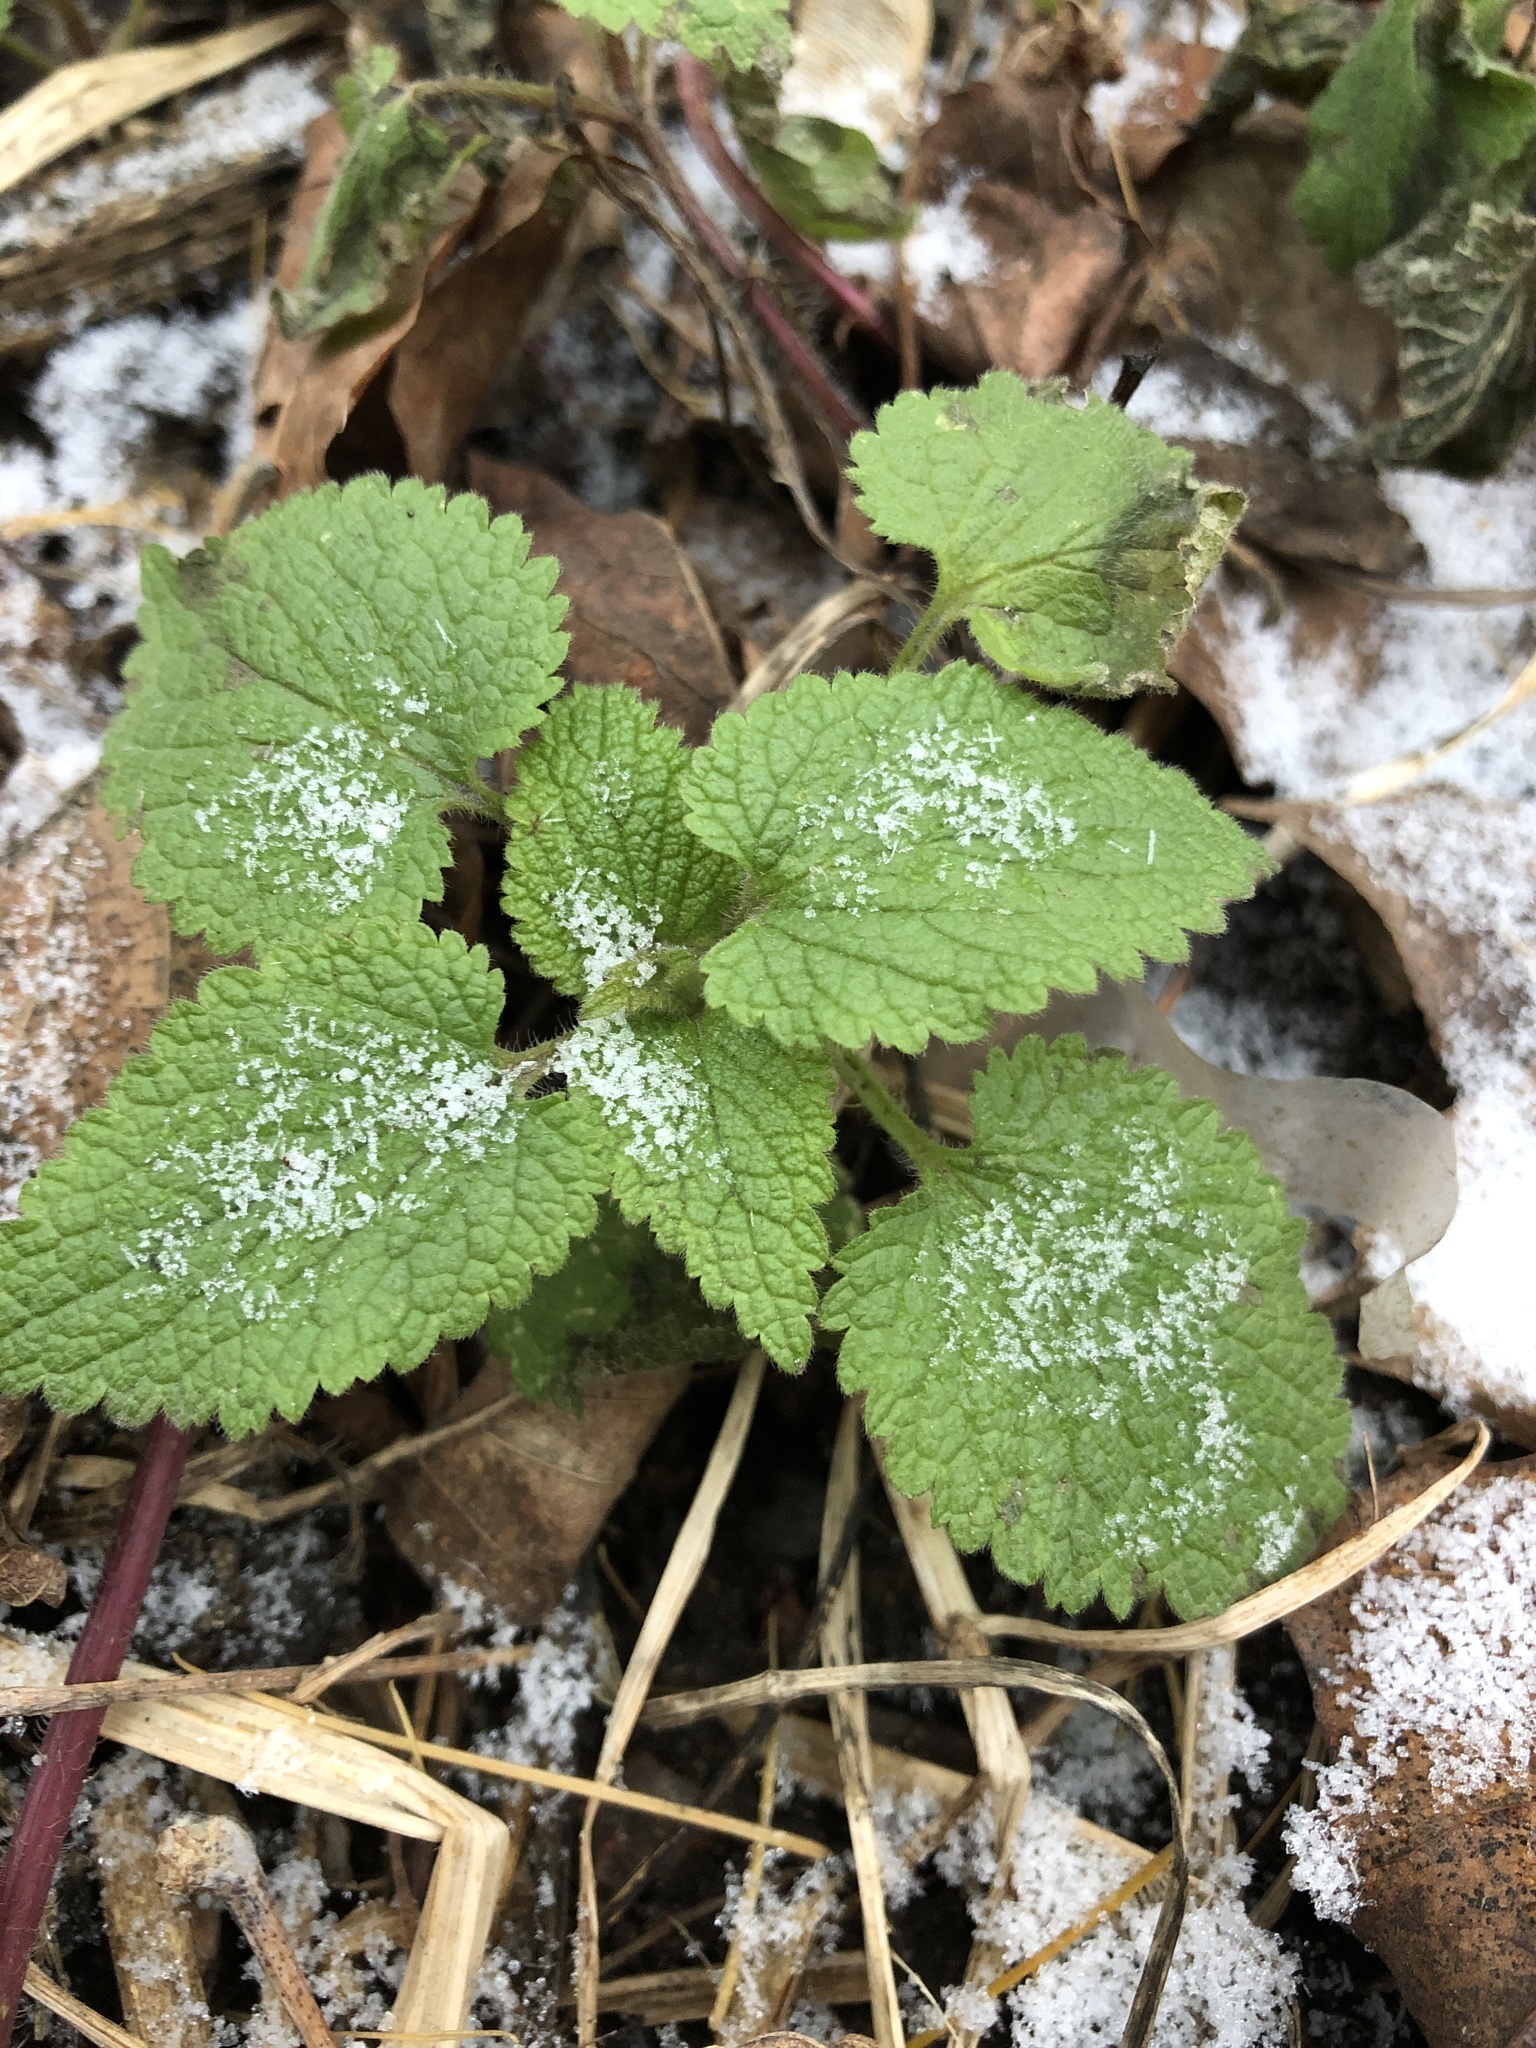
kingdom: Plantae
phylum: Tracheophyta
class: Magnoliopsida
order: Lamiales
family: Lamiaceae
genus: Lamium
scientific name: Lamium
